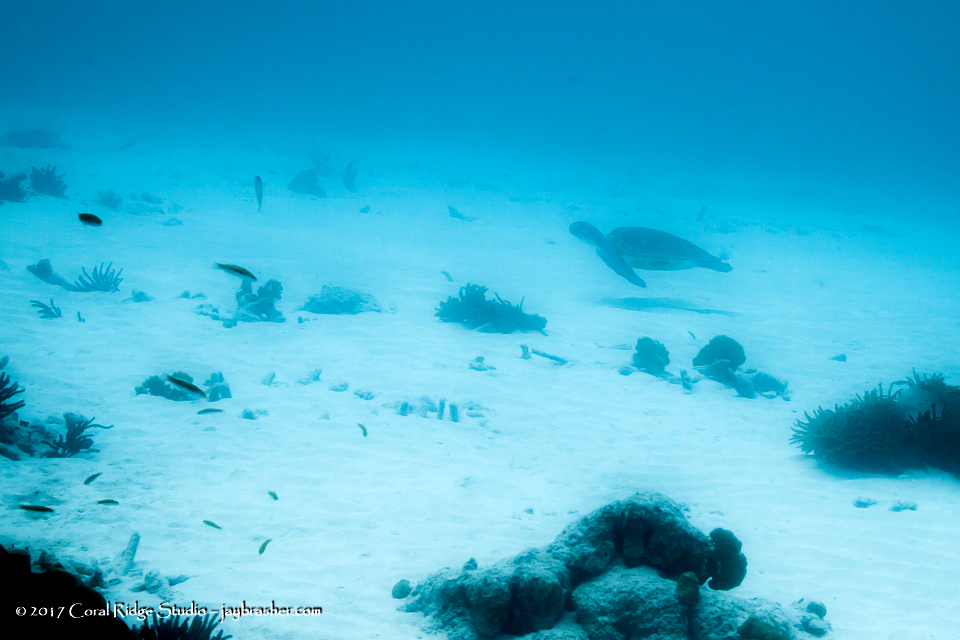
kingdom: Animalia
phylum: Chordata
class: Testudines
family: Cheloniidae
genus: Chelonia
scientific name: Chelonia mydas
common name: Green turtle
